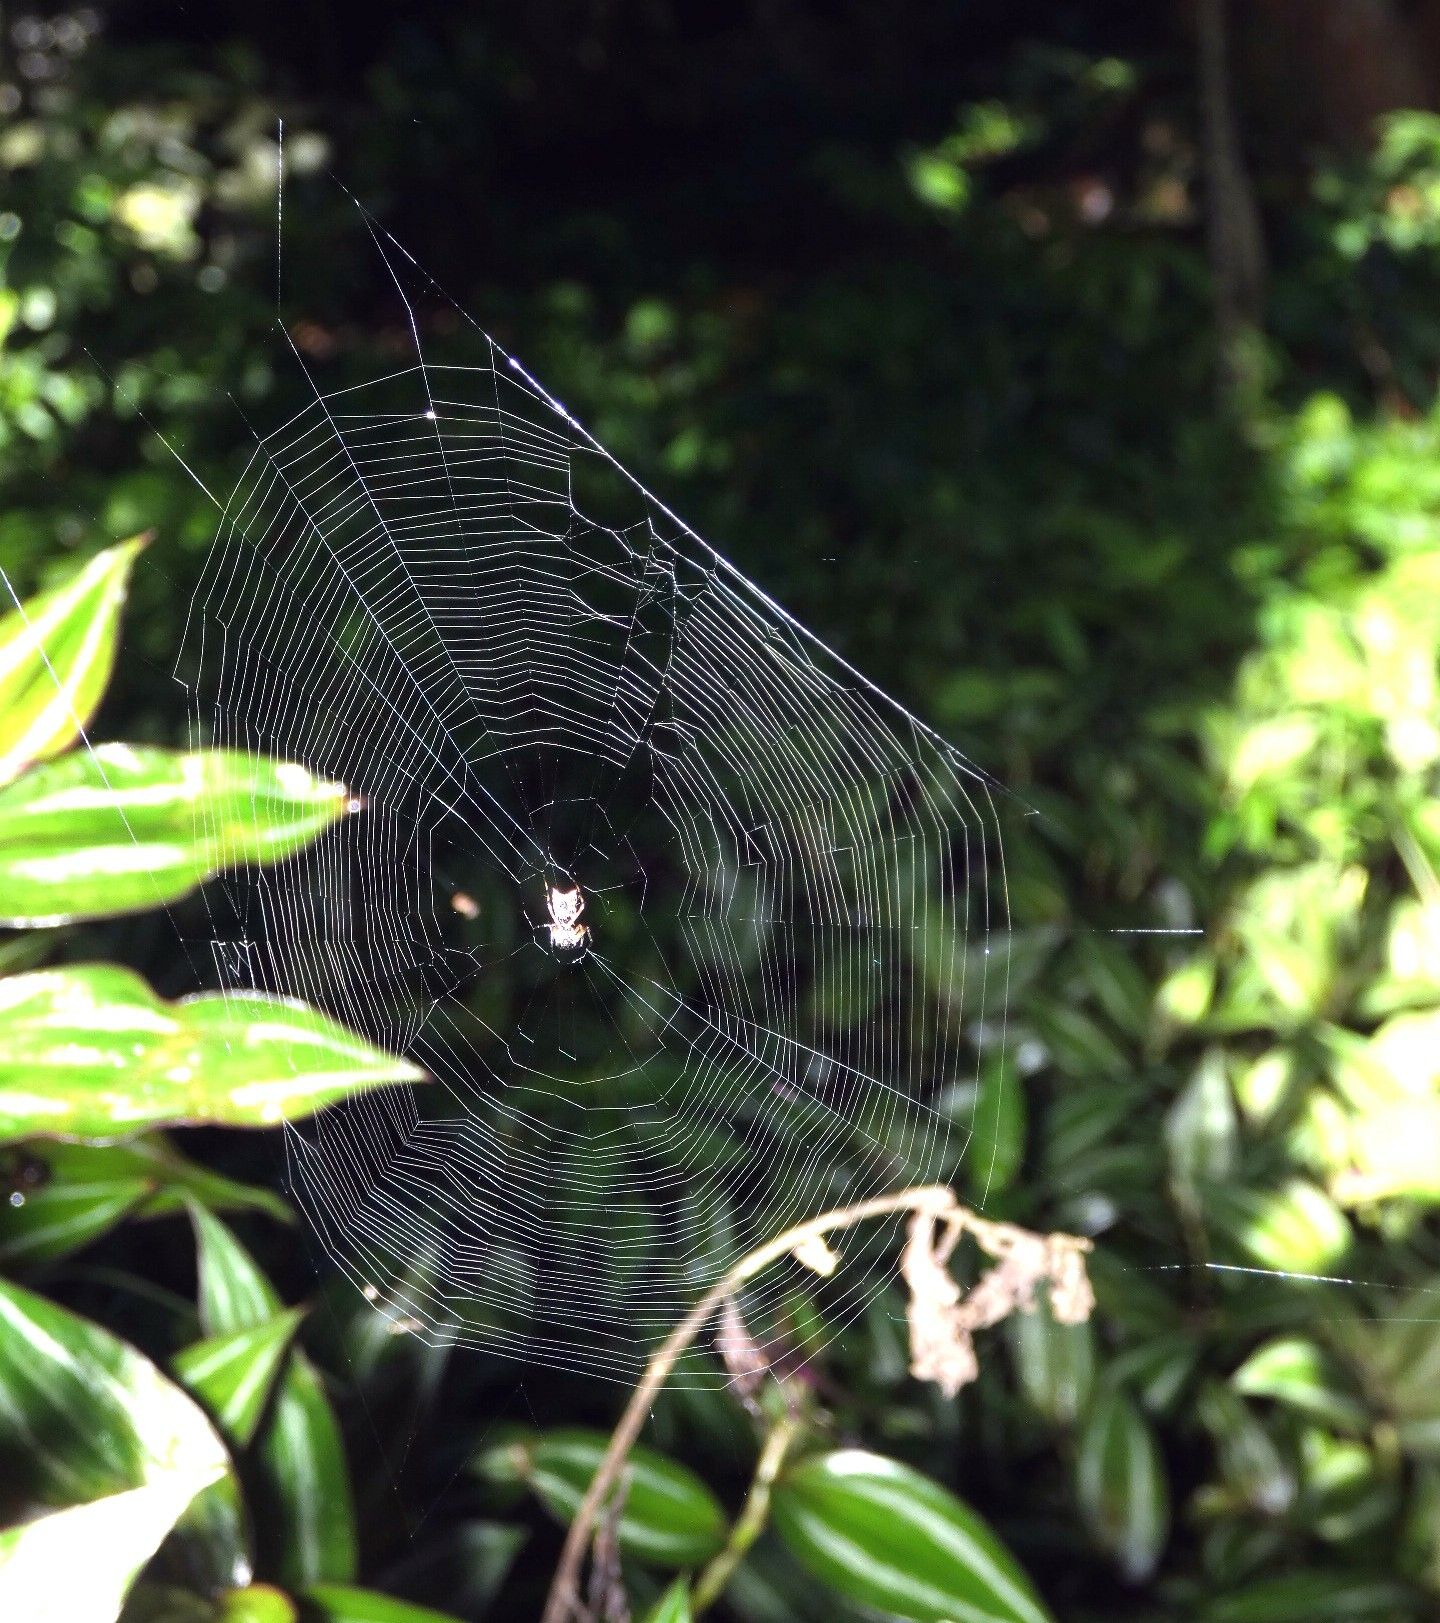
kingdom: Animalia
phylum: Arthropoda
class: Arachnida
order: Araneae
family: Araneidae
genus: Micrathena
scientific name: Micrathena picta
